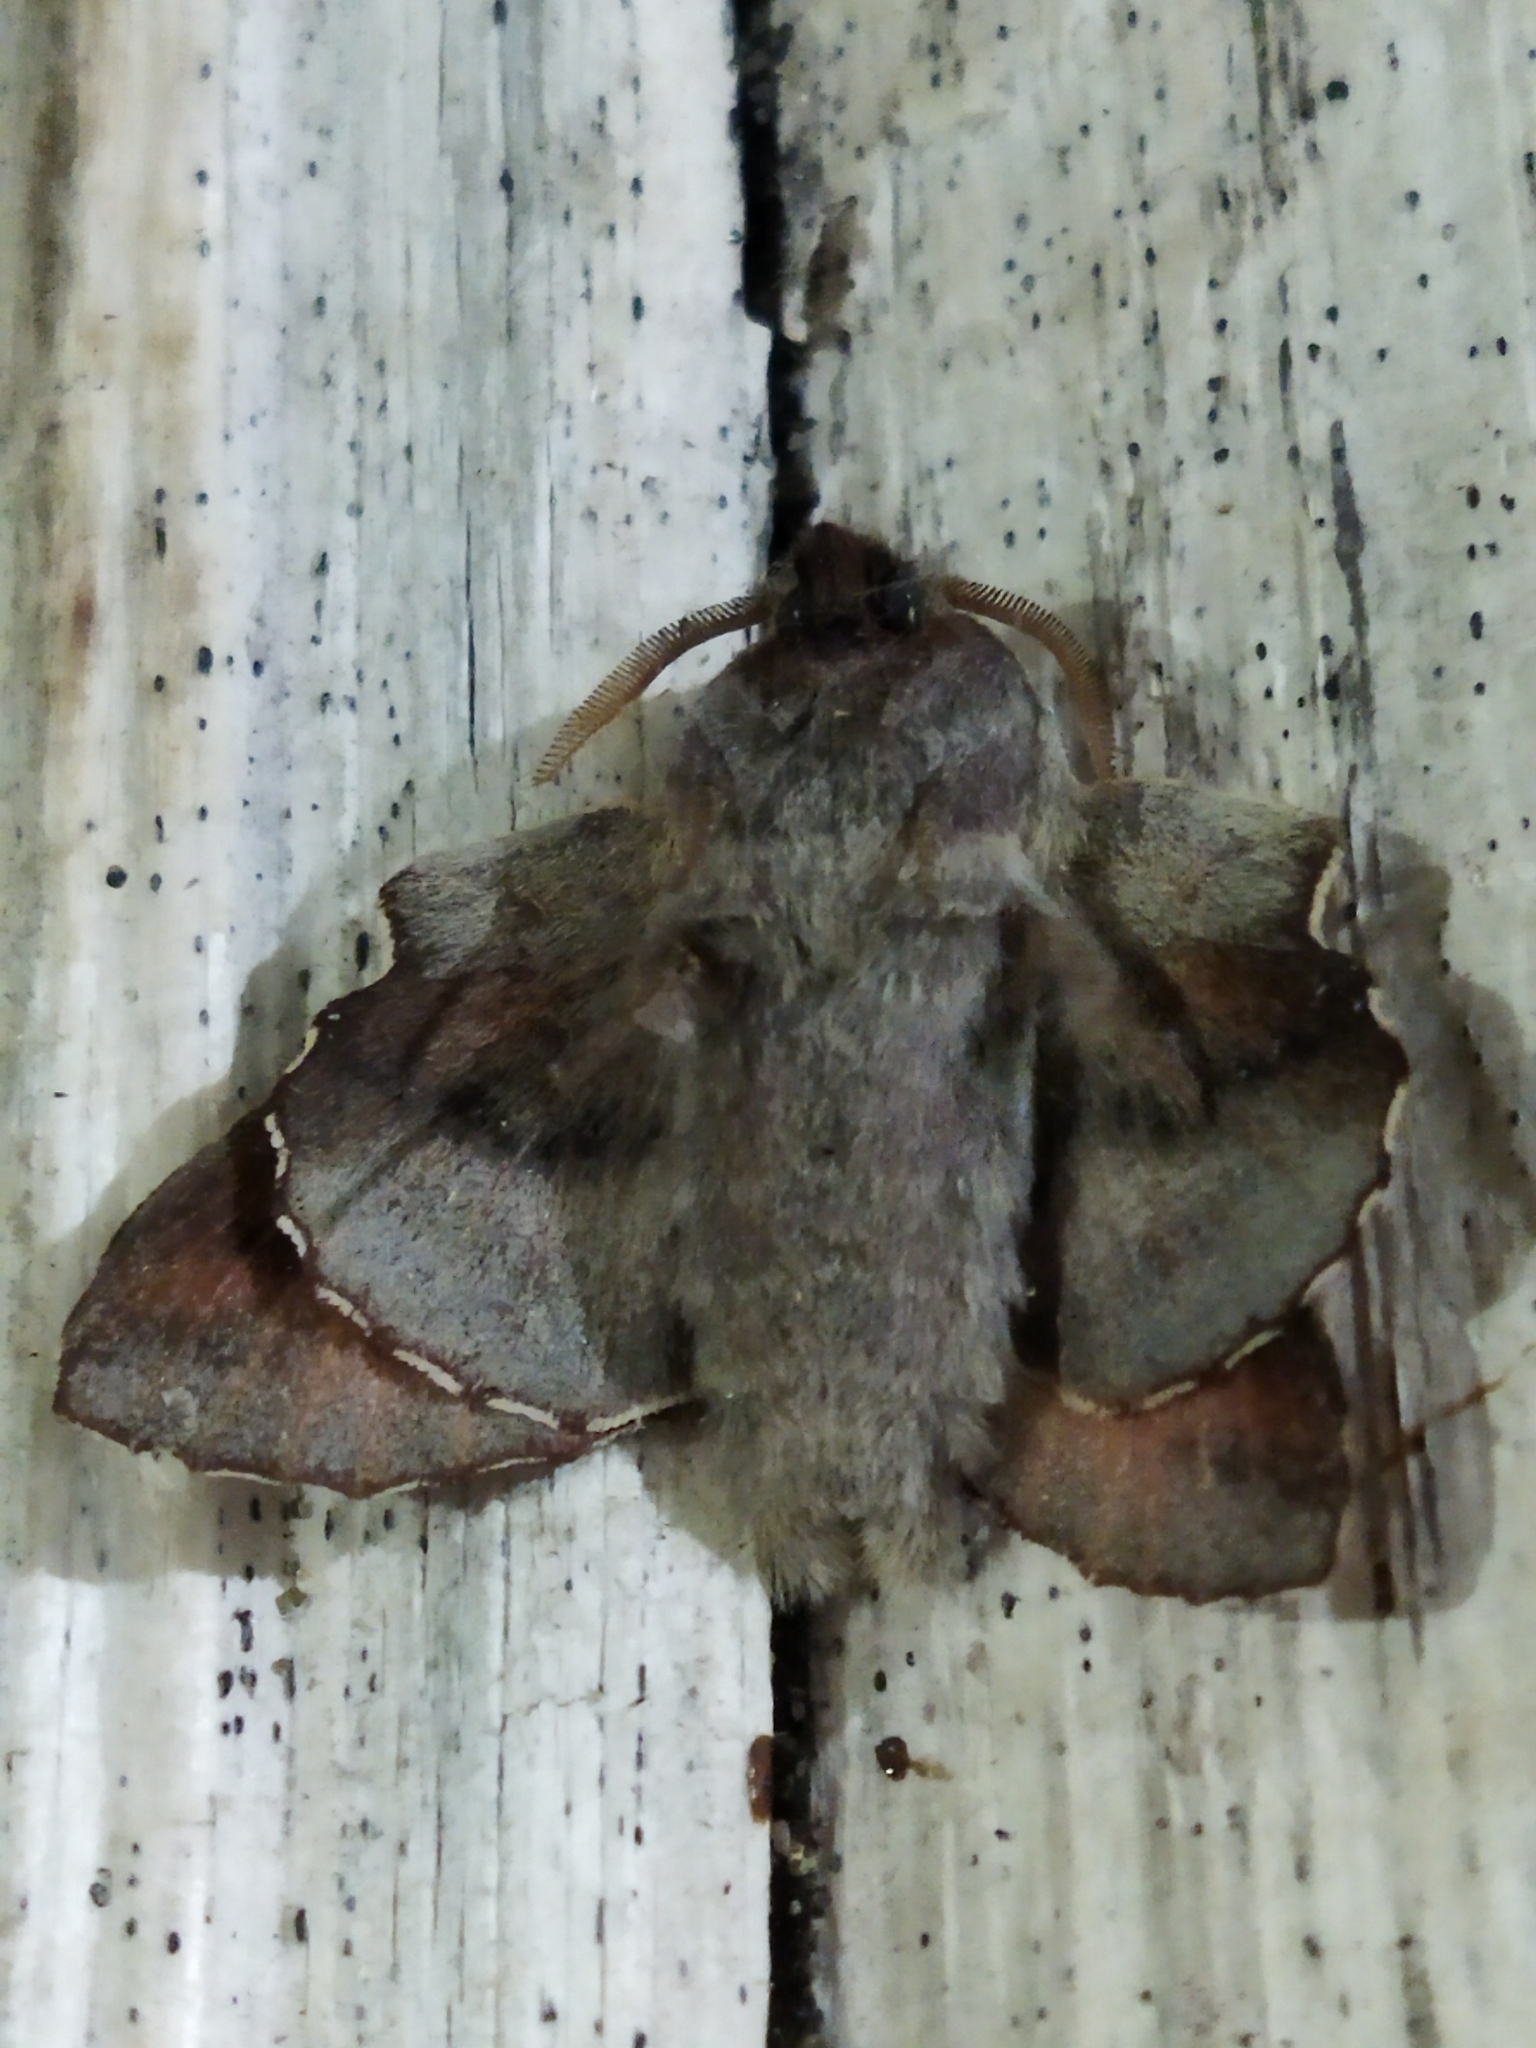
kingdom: Animalia
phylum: Arthropoda
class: Insecta
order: Lepidoptera
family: Lasiocampidae
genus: Phyllodesma
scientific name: Phyllodesma tremulifolia
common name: Aspen lappet
